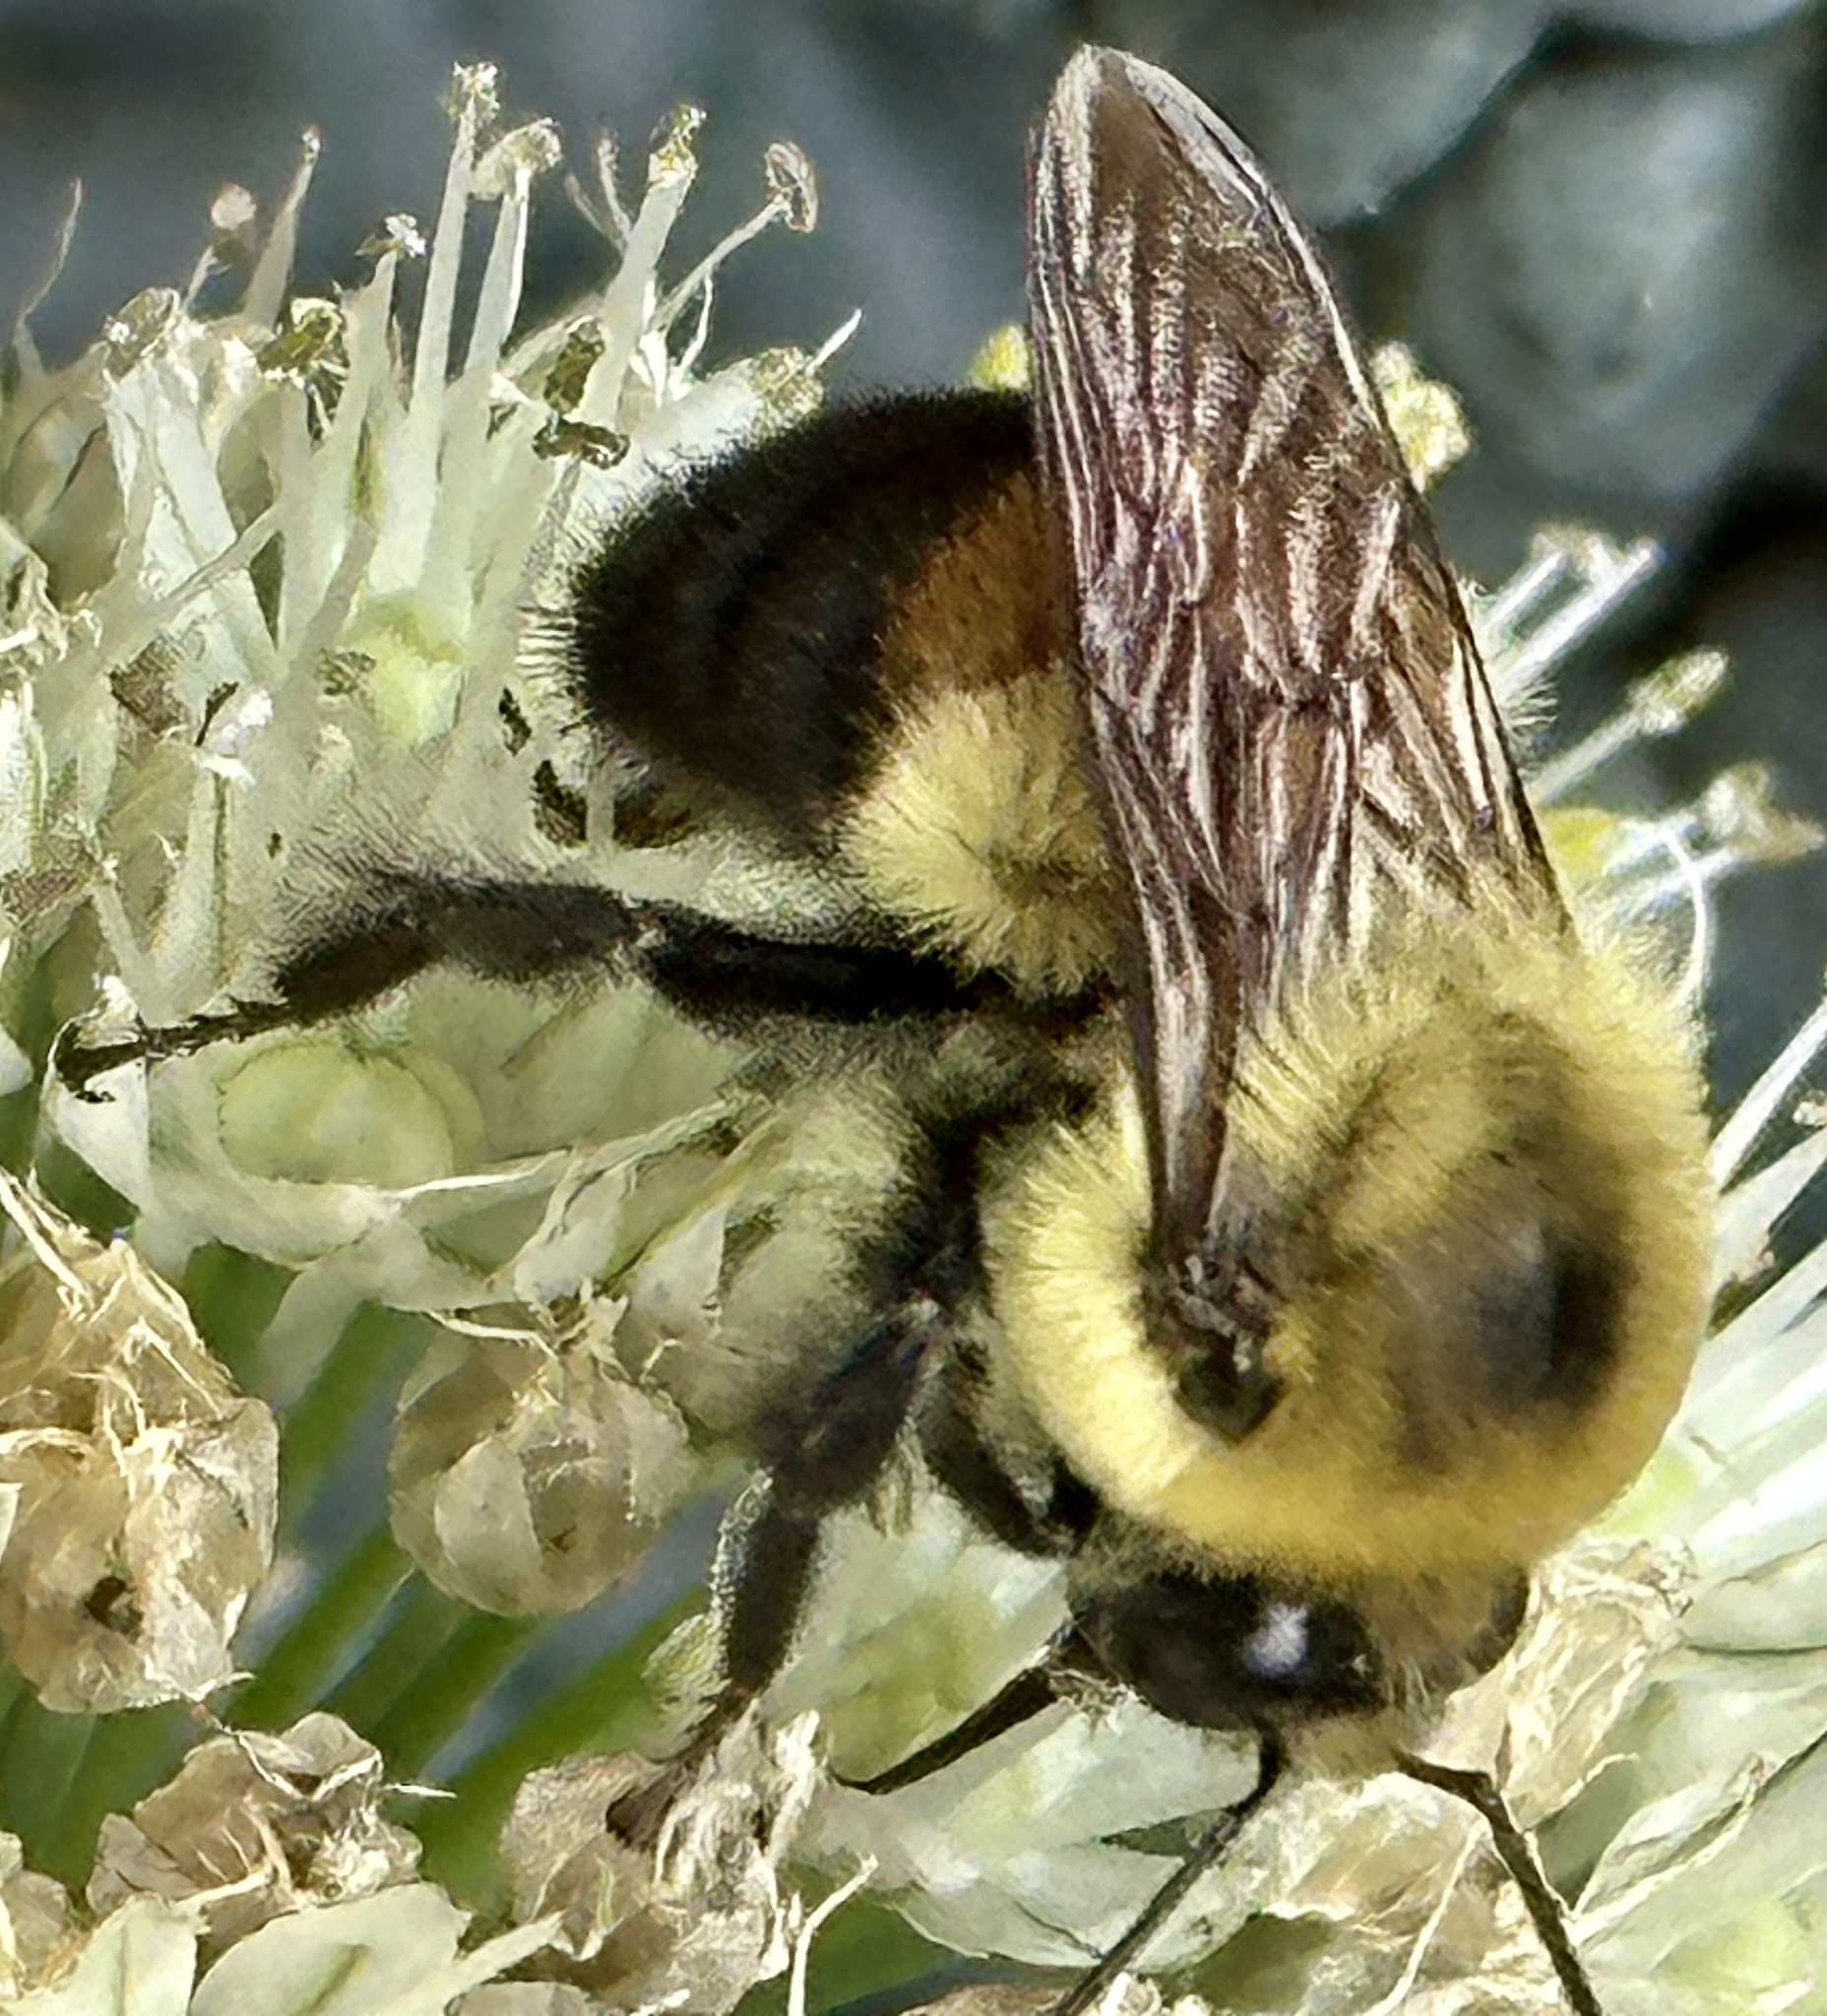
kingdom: Animalia
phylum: Arthropoda
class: Insecta
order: Hymenoptera
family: Apidae
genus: Bombus
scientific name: Bombus griseocollis
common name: Brown-belted bumble bee
